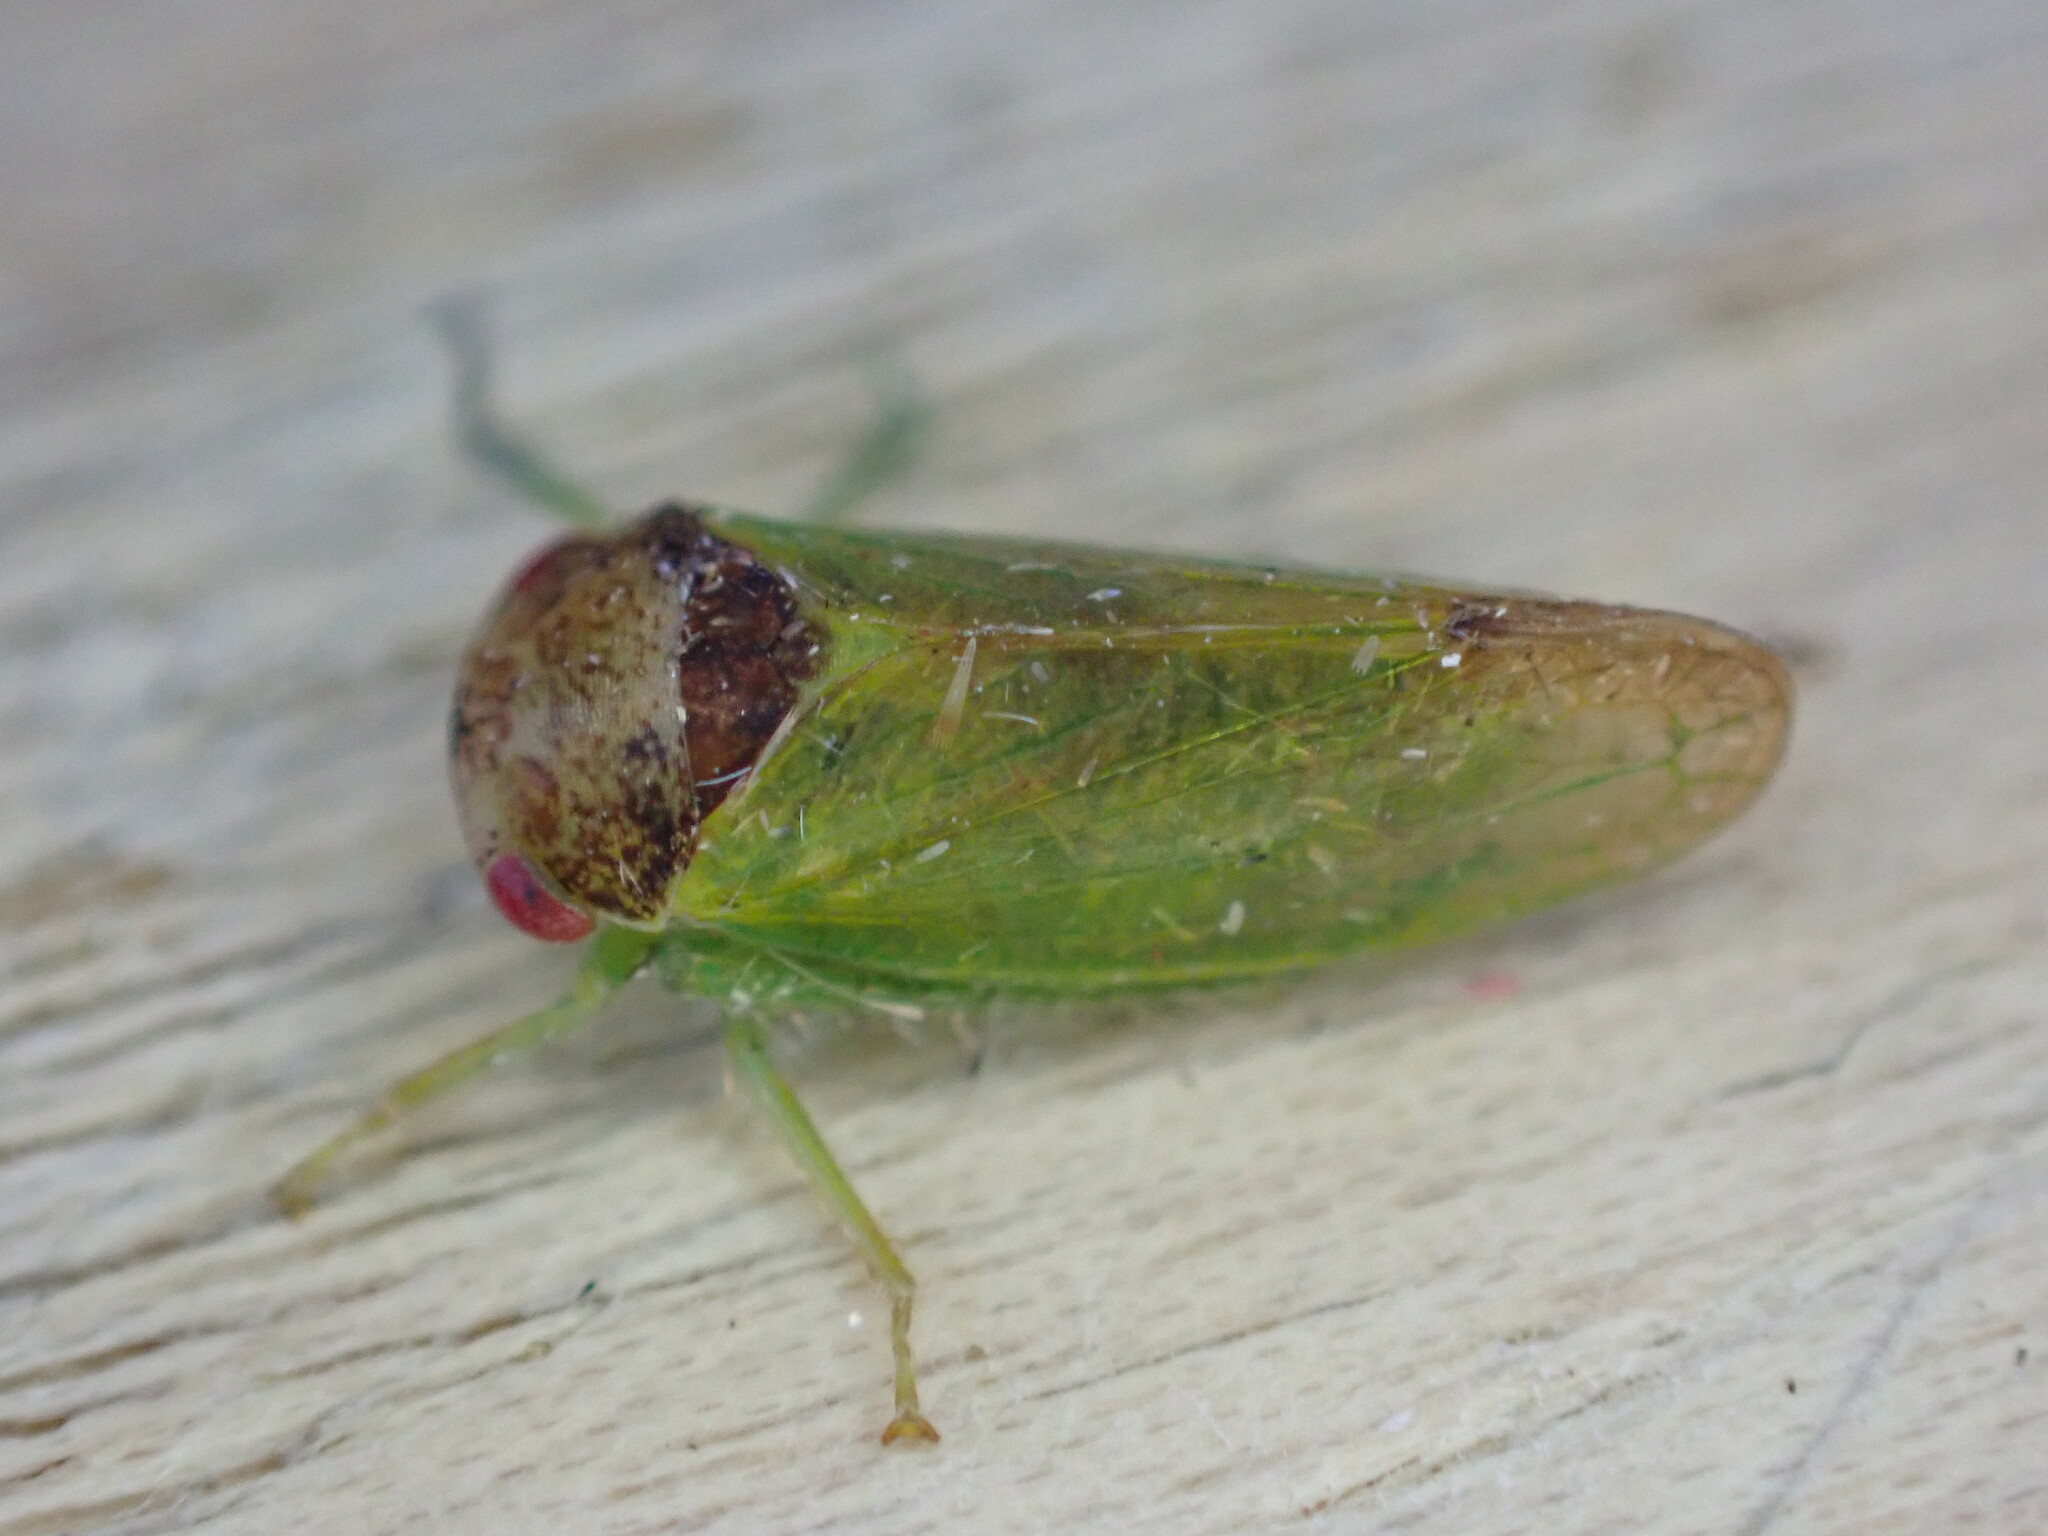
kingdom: Animalia
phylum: Arthropoda
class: Insecta
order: Hemiptera
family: Cicadellidae
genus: Iassus
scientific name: Iassus lanio
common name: Leafhopper
